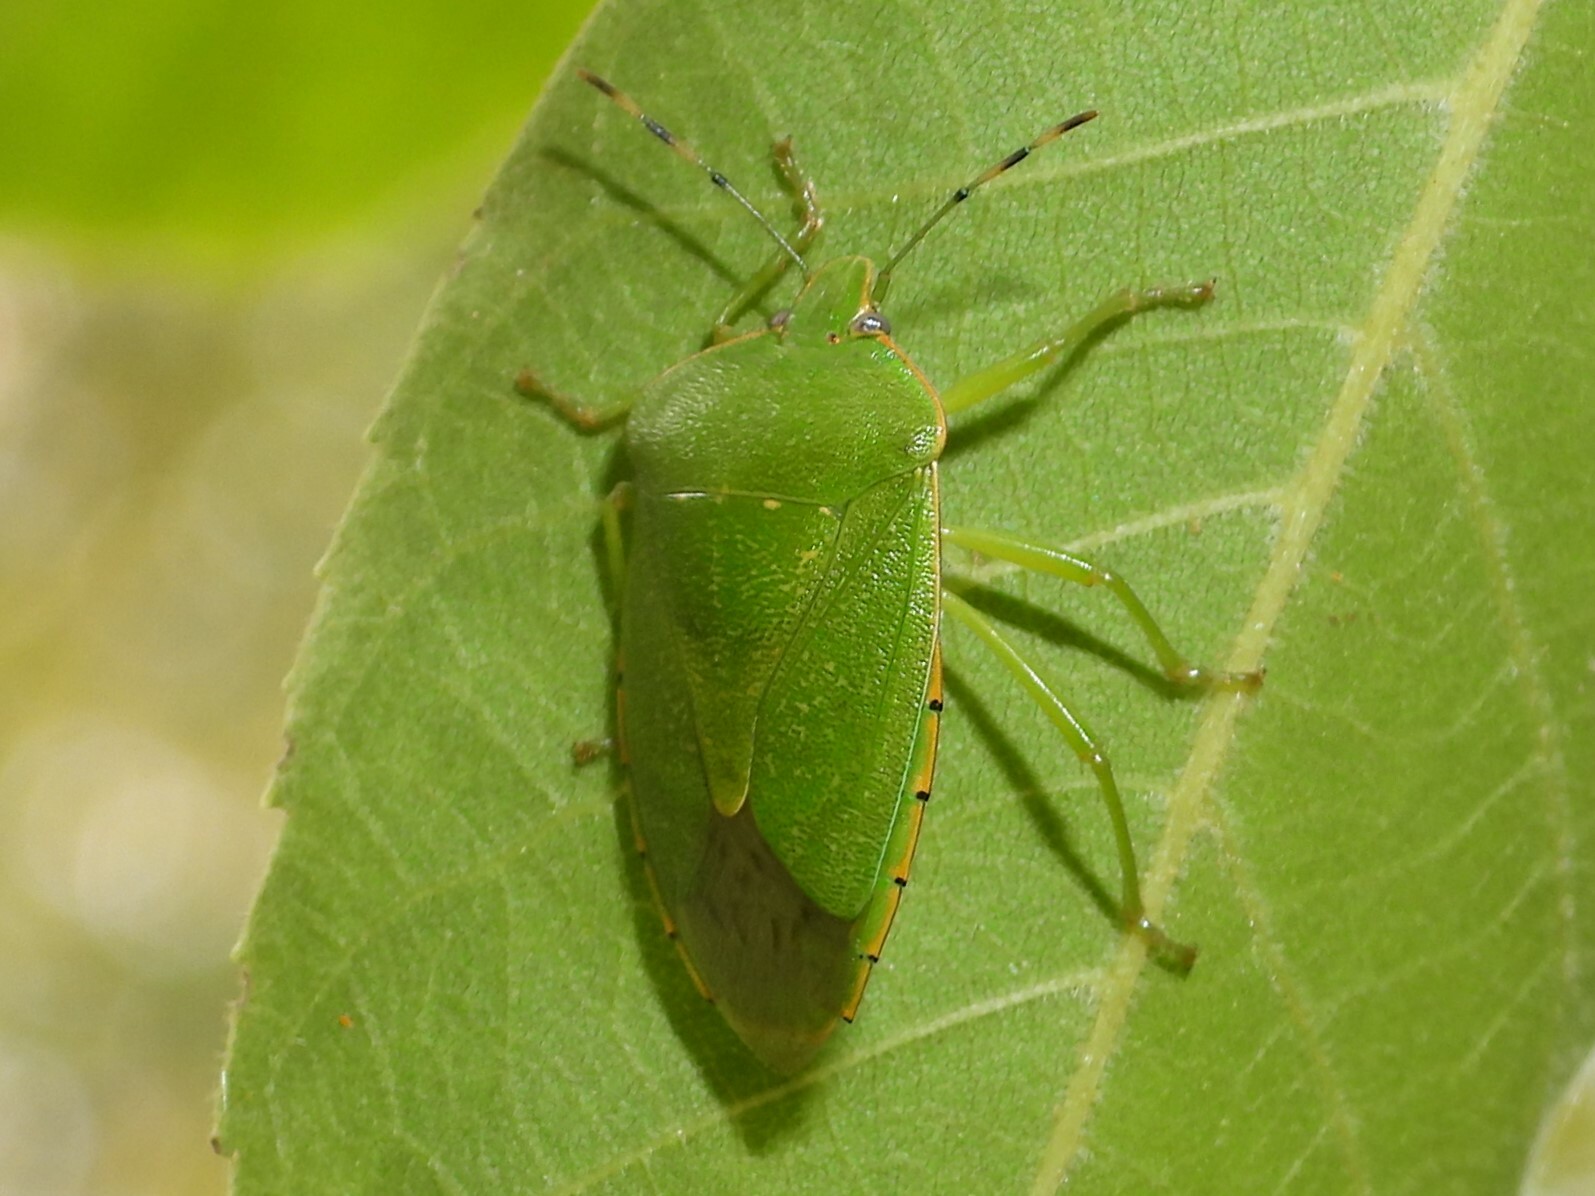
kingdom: Animalia
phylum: Arthropoda
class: Insecta
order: Hemiptera
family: Pentatomidae
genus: Chinavia
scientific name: Chinavia hilaris
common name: Green stink bug
